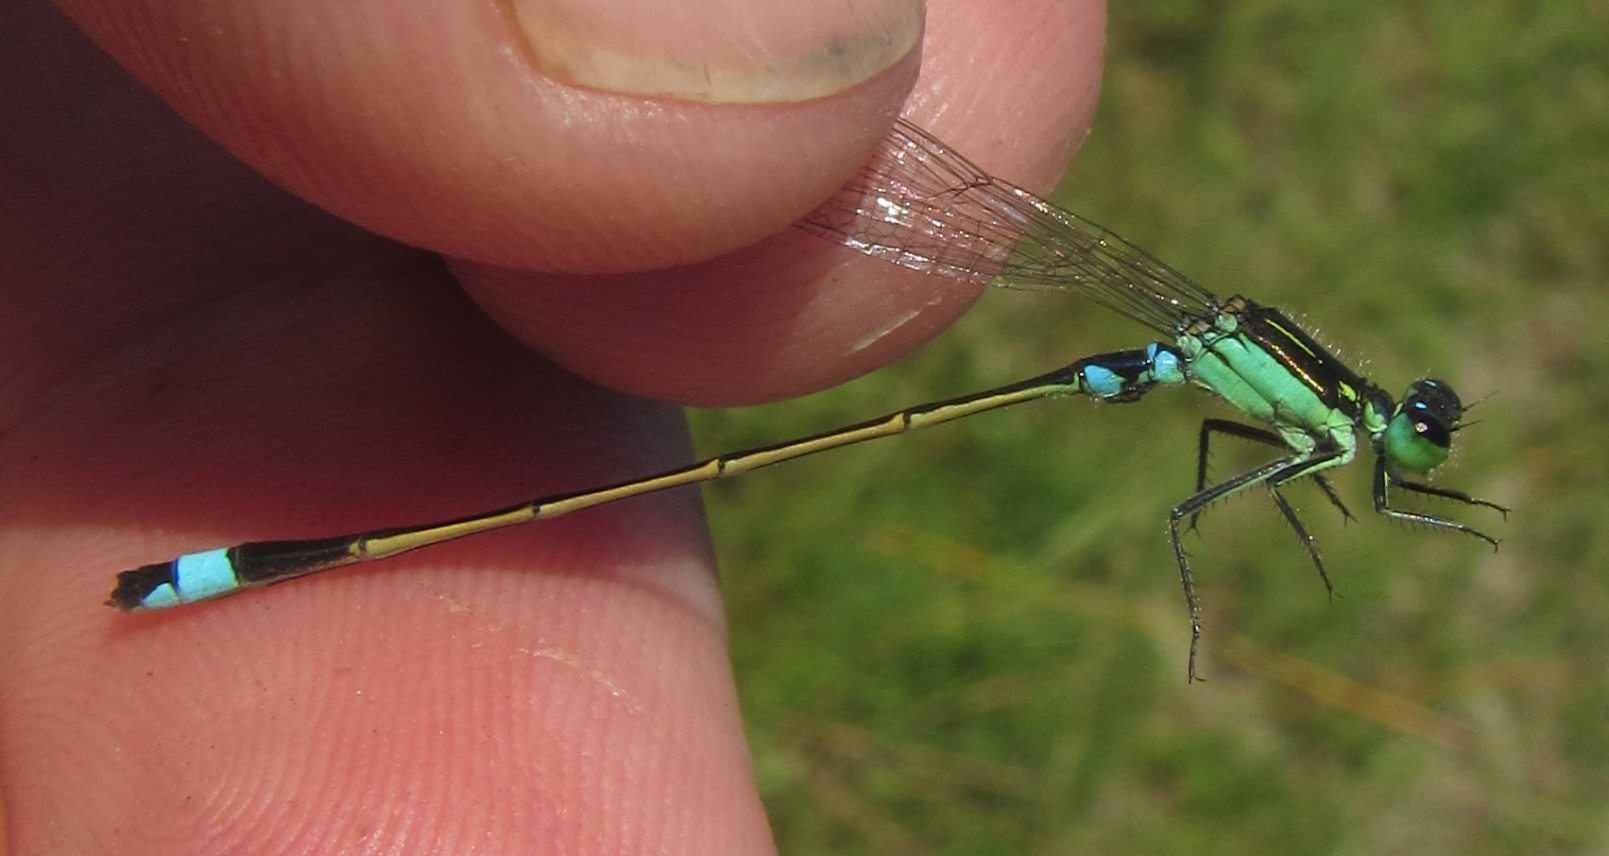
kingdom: Animalia
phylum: Arthropoda
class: Insecta
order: Odonata
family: Coenagrionidae
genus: Ischnura
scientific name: Ischnura senegalensis
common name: Tropical bluetail
